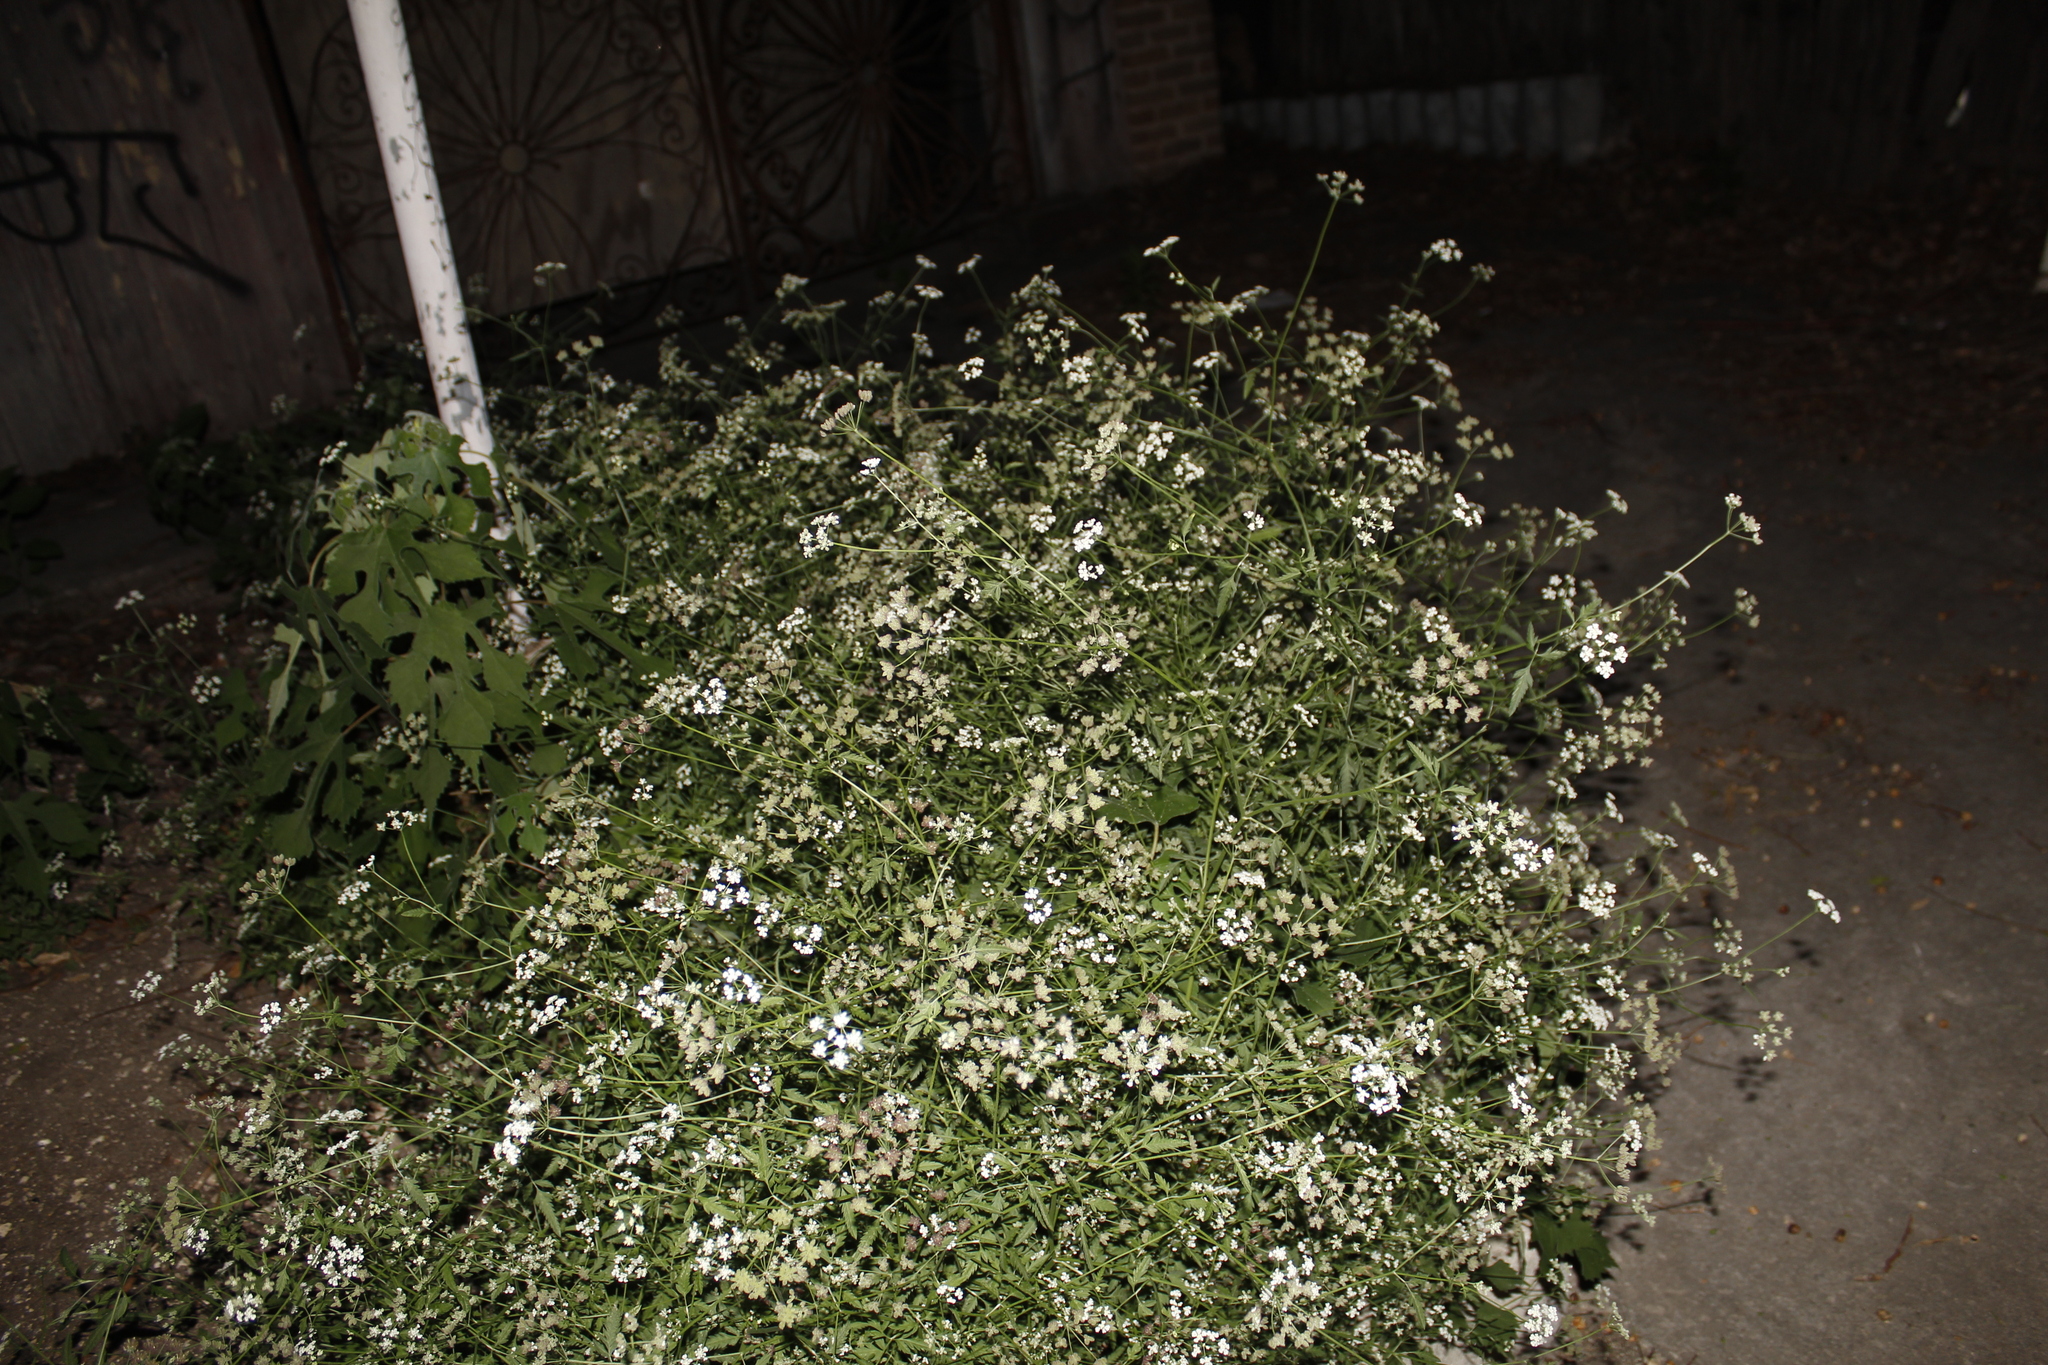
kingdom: Plantae
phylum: Tracheophyta
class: Magnoliopsida
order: Apiales
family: Apiaceae
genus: Torilis
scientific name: Torilis arvensis
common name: Spreading hedge-parsley
